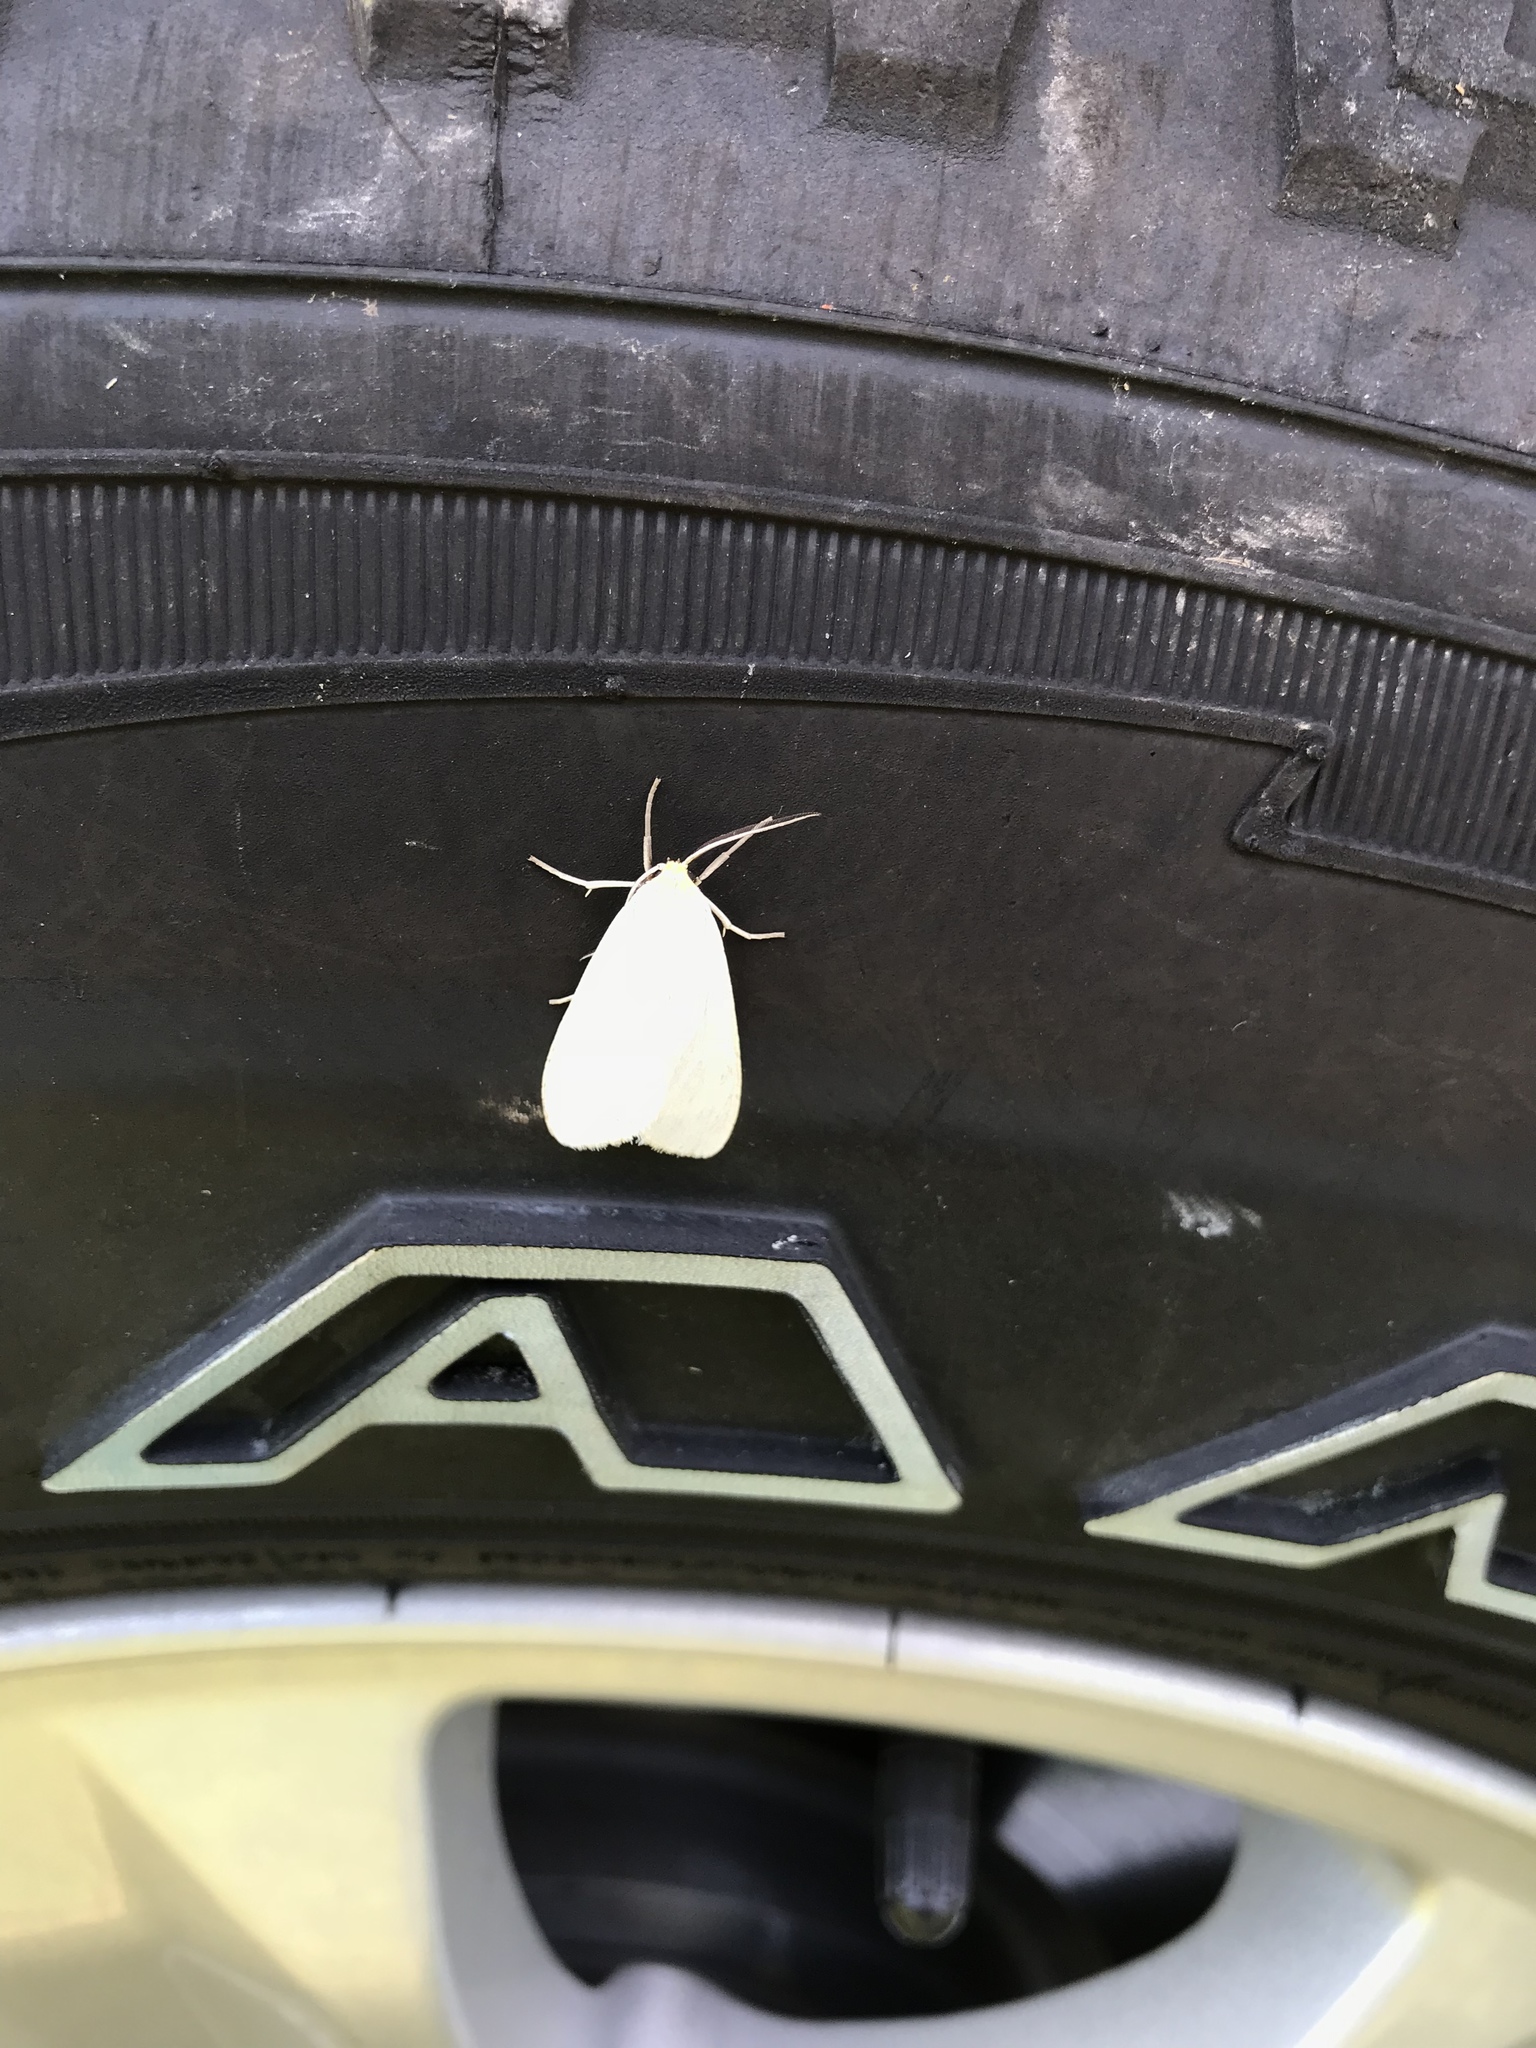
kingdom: Animalia
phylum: Arthropoda
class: Insecta
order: Lepidoptera
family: Erebidae
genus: Cycnia
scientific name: Cycnia tenera
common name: Delicate cycnia moth
